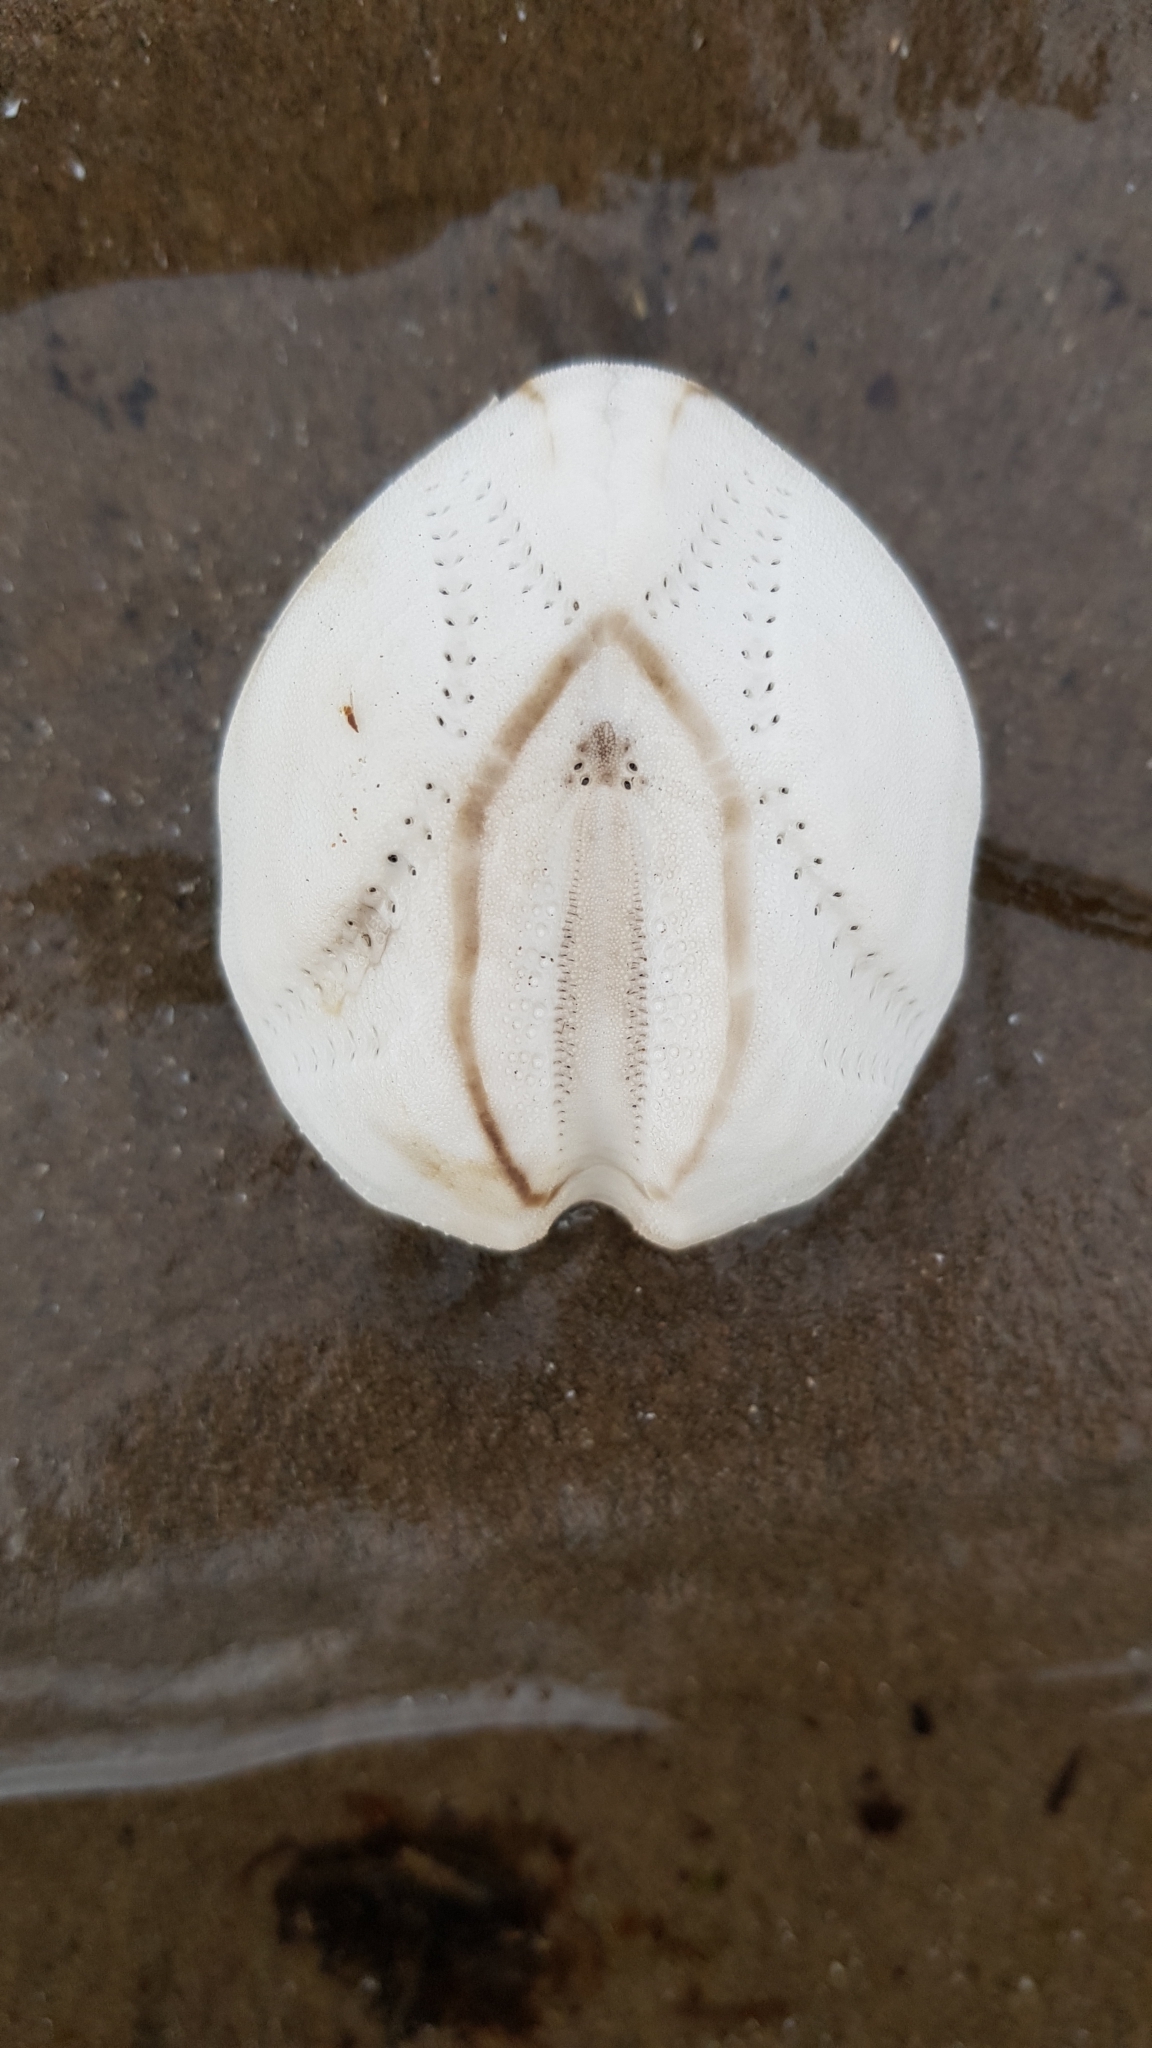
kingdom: Animalia
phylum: Echinodermata
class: Echinoidea
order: Spatangoida
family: Loveniidae
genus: Echinocardium
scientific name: Echinocardium cordatum
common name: Heart-urchin
